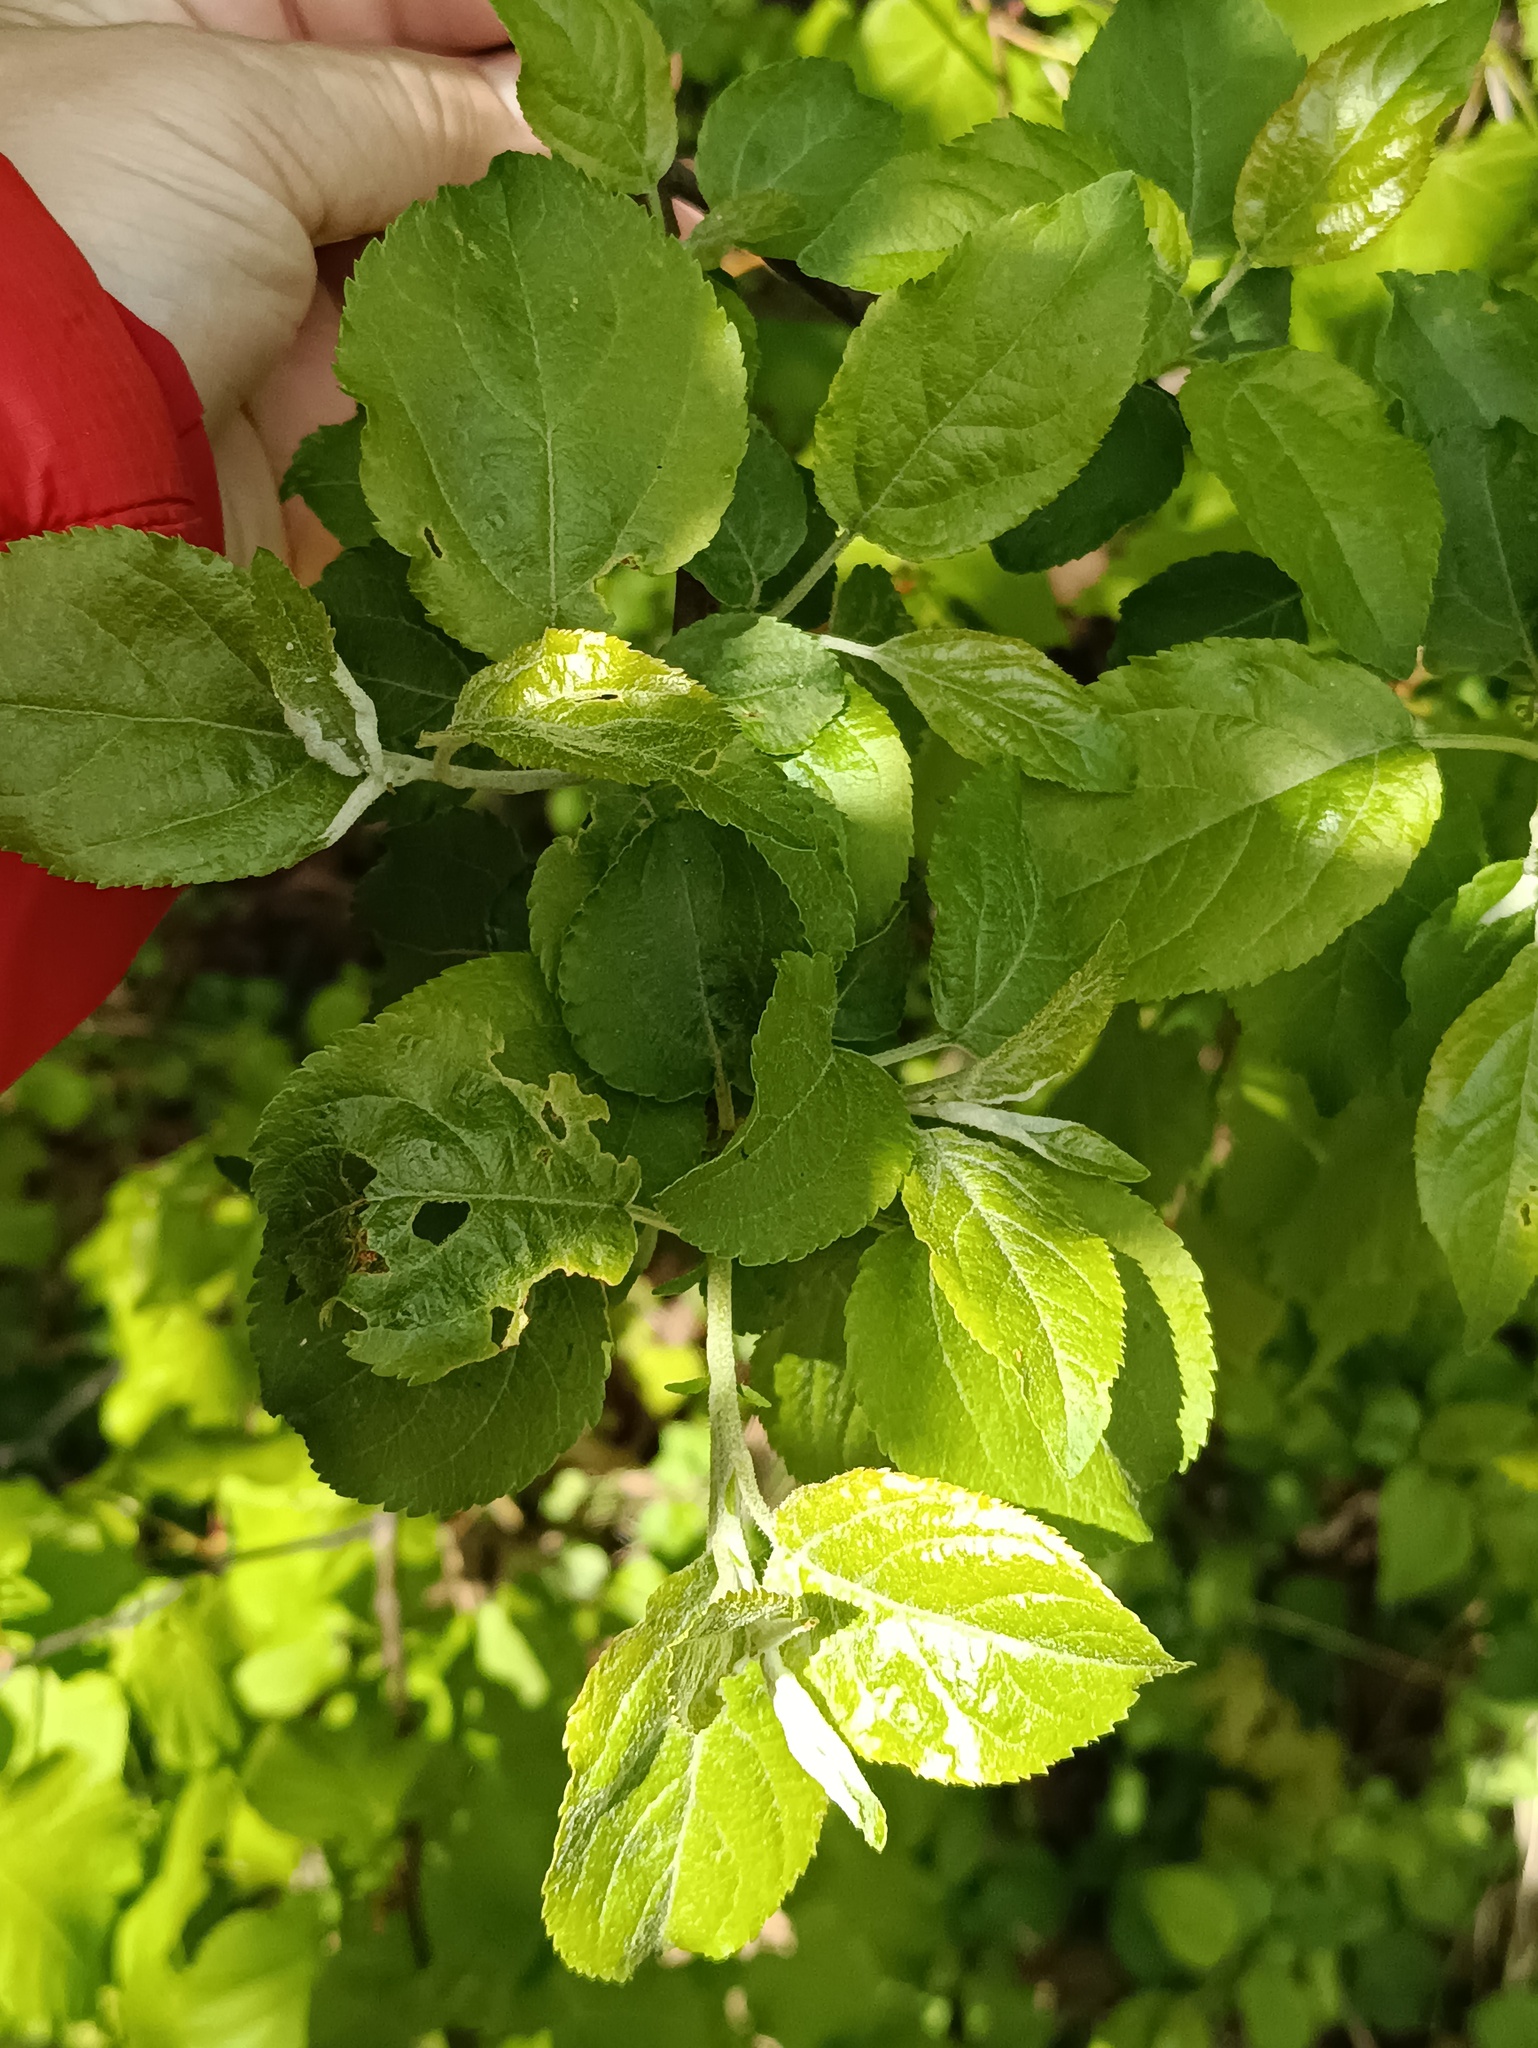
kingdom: Plantae
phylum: Tracheophyta
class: Magnoliopsida
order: Rosales
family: Rosaceae
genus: Malus
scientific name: Malus domestica
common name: Apple
